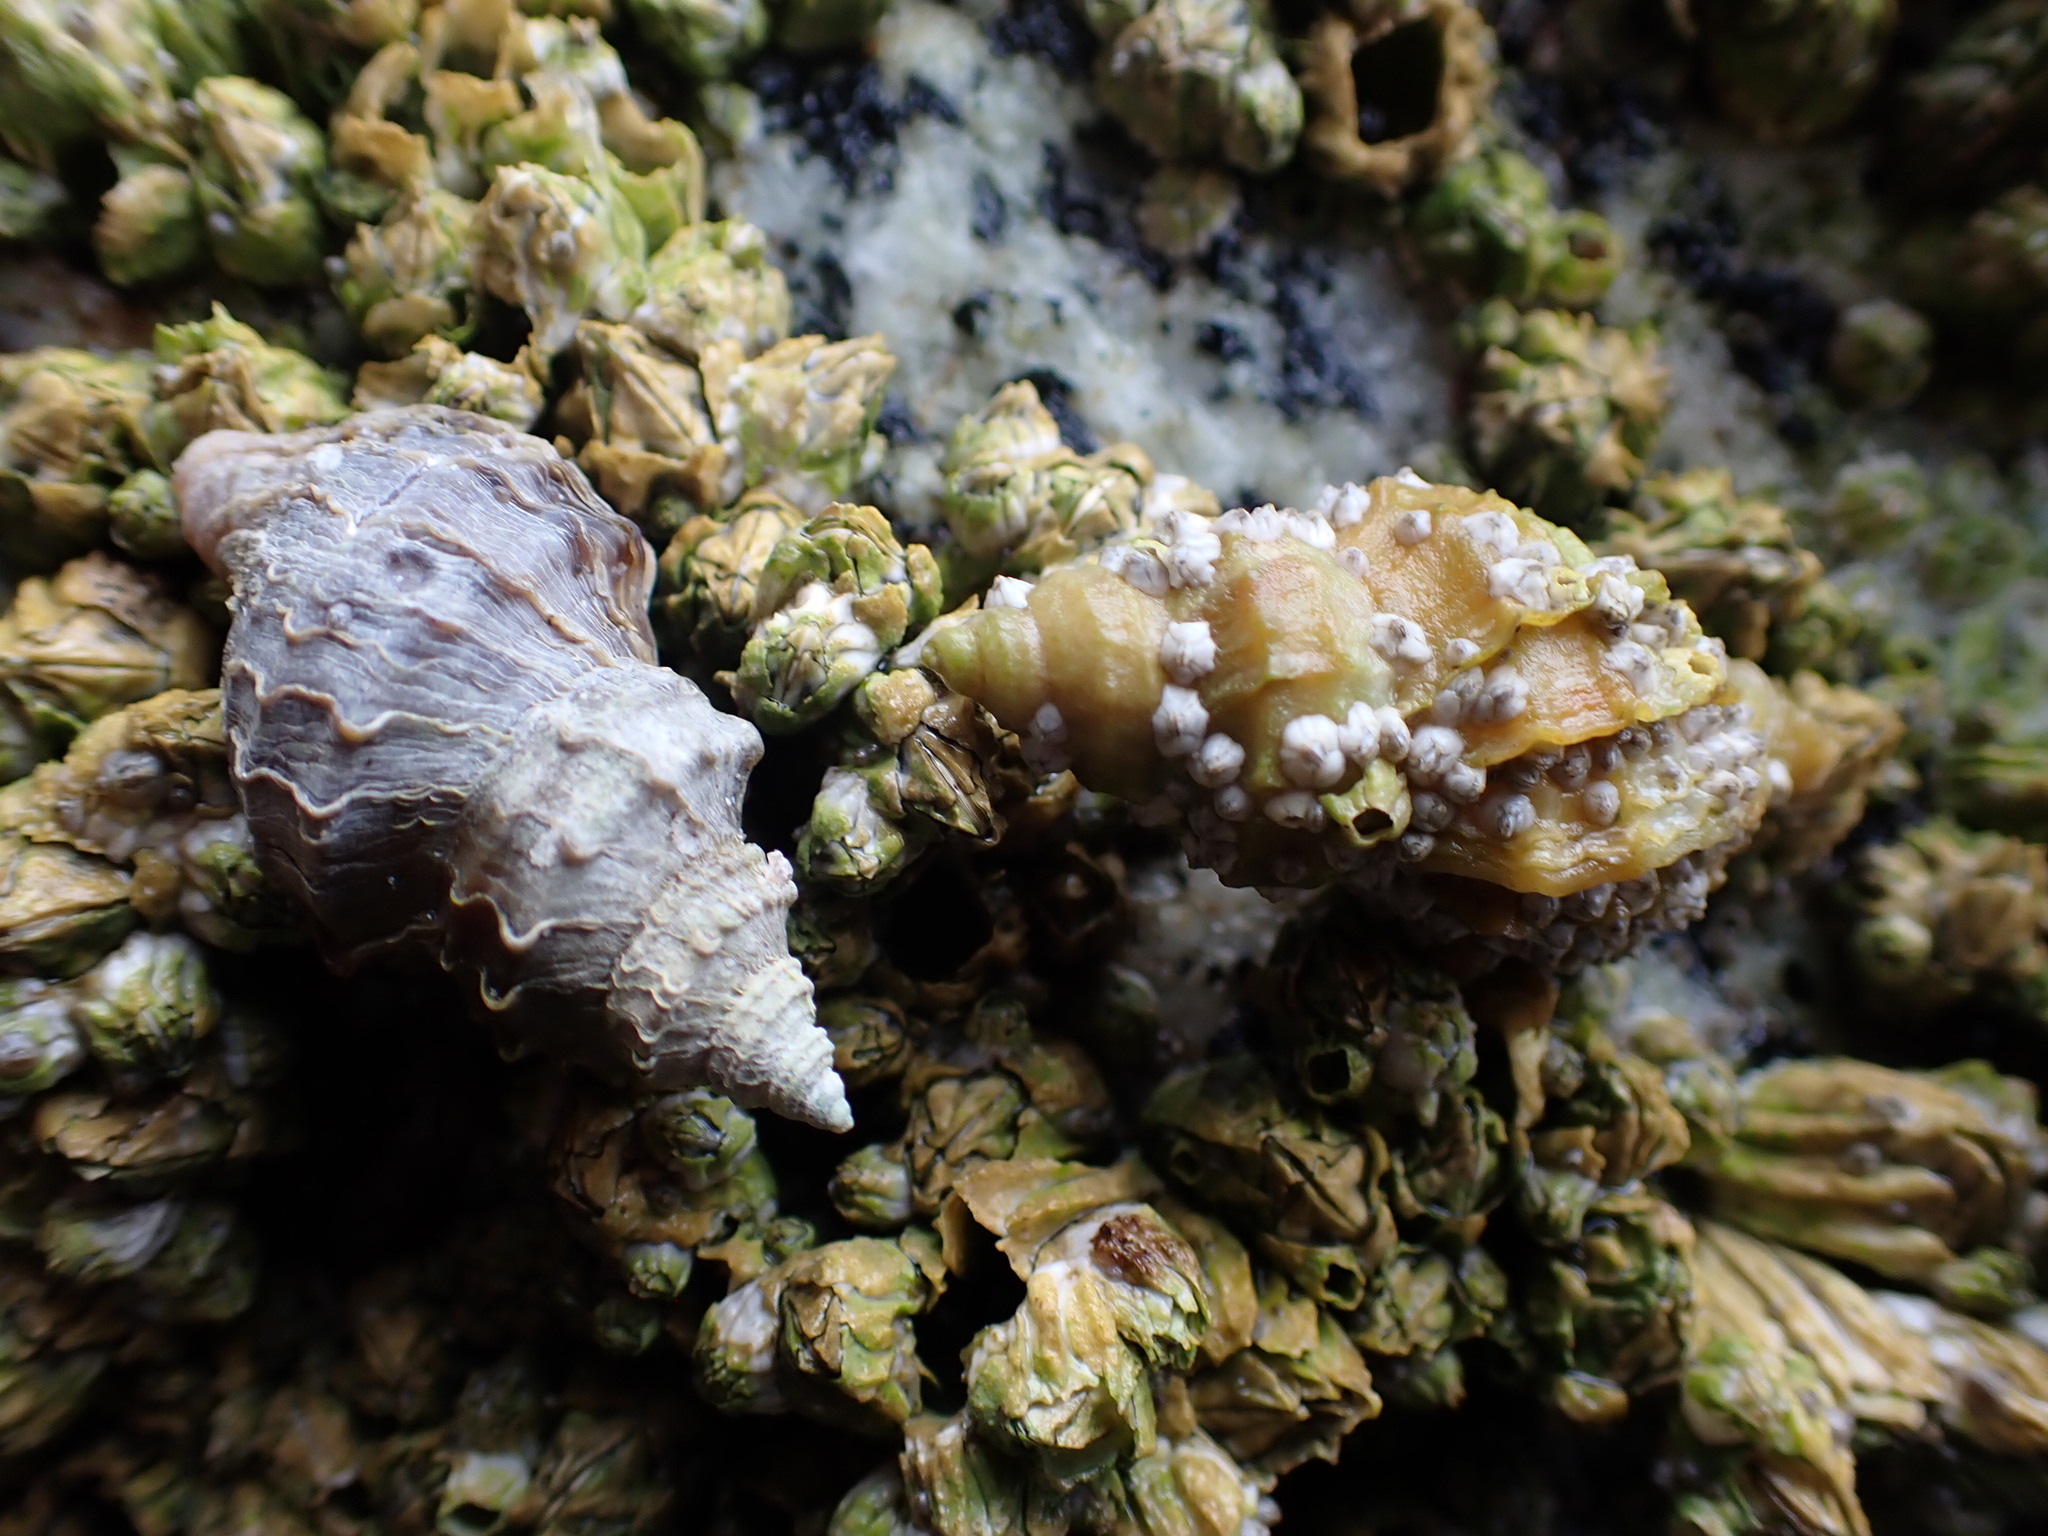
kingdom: Animalia
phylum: Mollusca
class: Gastropoda
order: Neogastropoda
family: Muricidae
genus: Nucella
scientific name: Nucella lamellosa
